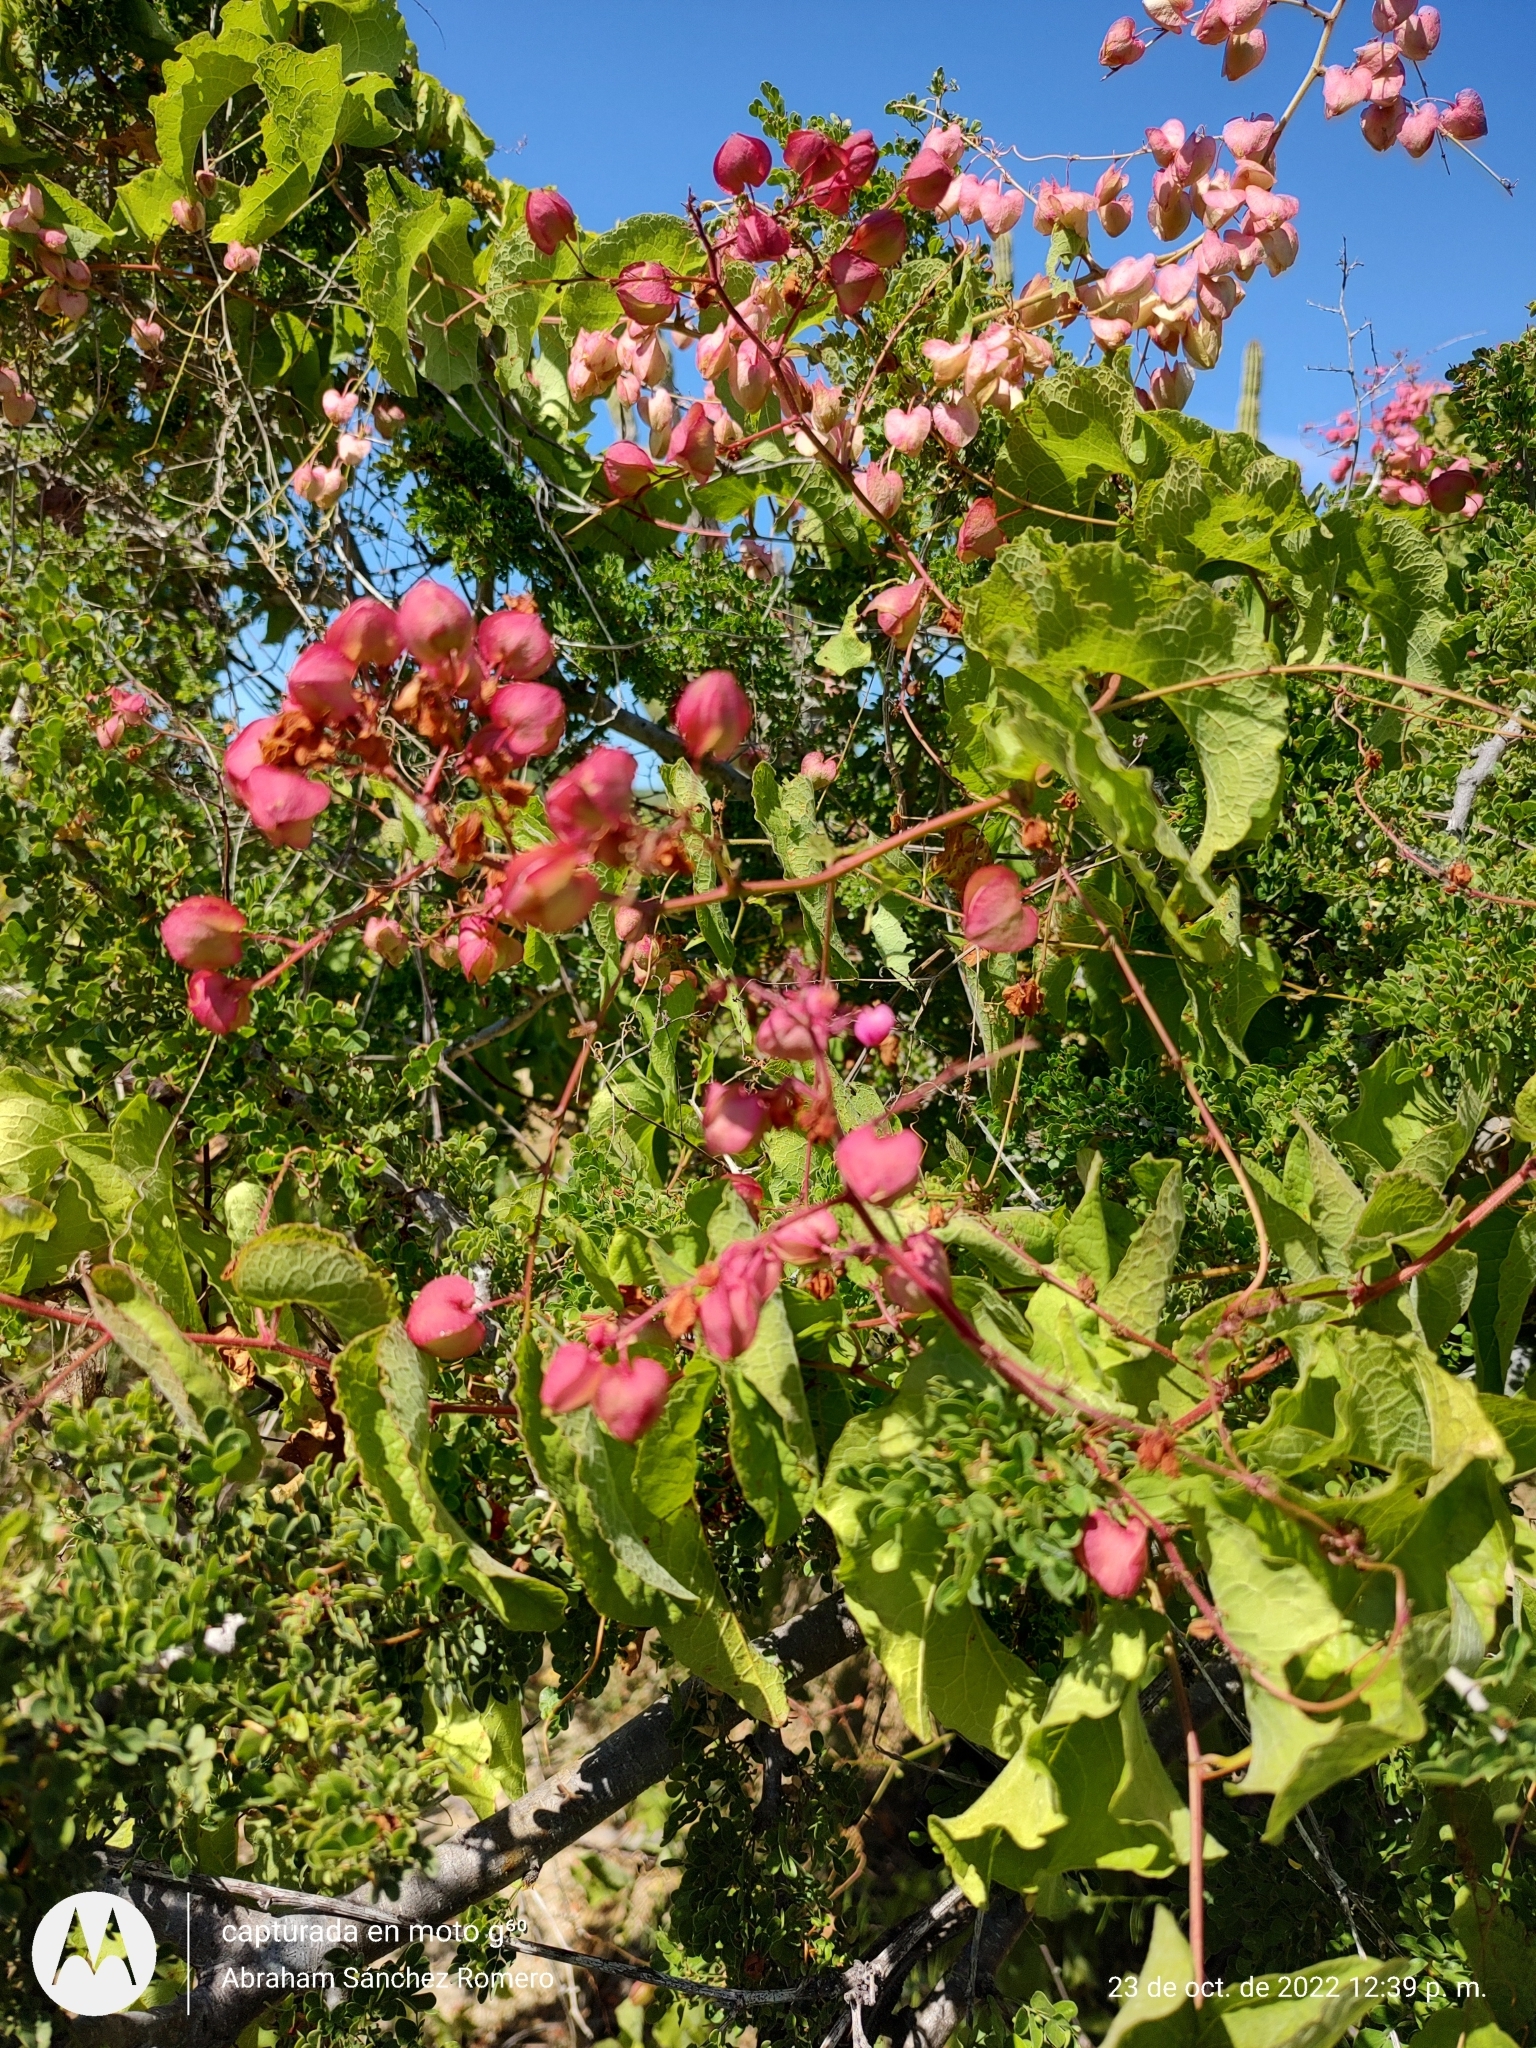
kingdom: Plantae
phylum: Tracheophyta
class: Magnoliopsida
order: Caryophyllales
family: Polygonaceae
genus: Antigonon
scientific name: Antigonon leptopus
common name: Coral vine
